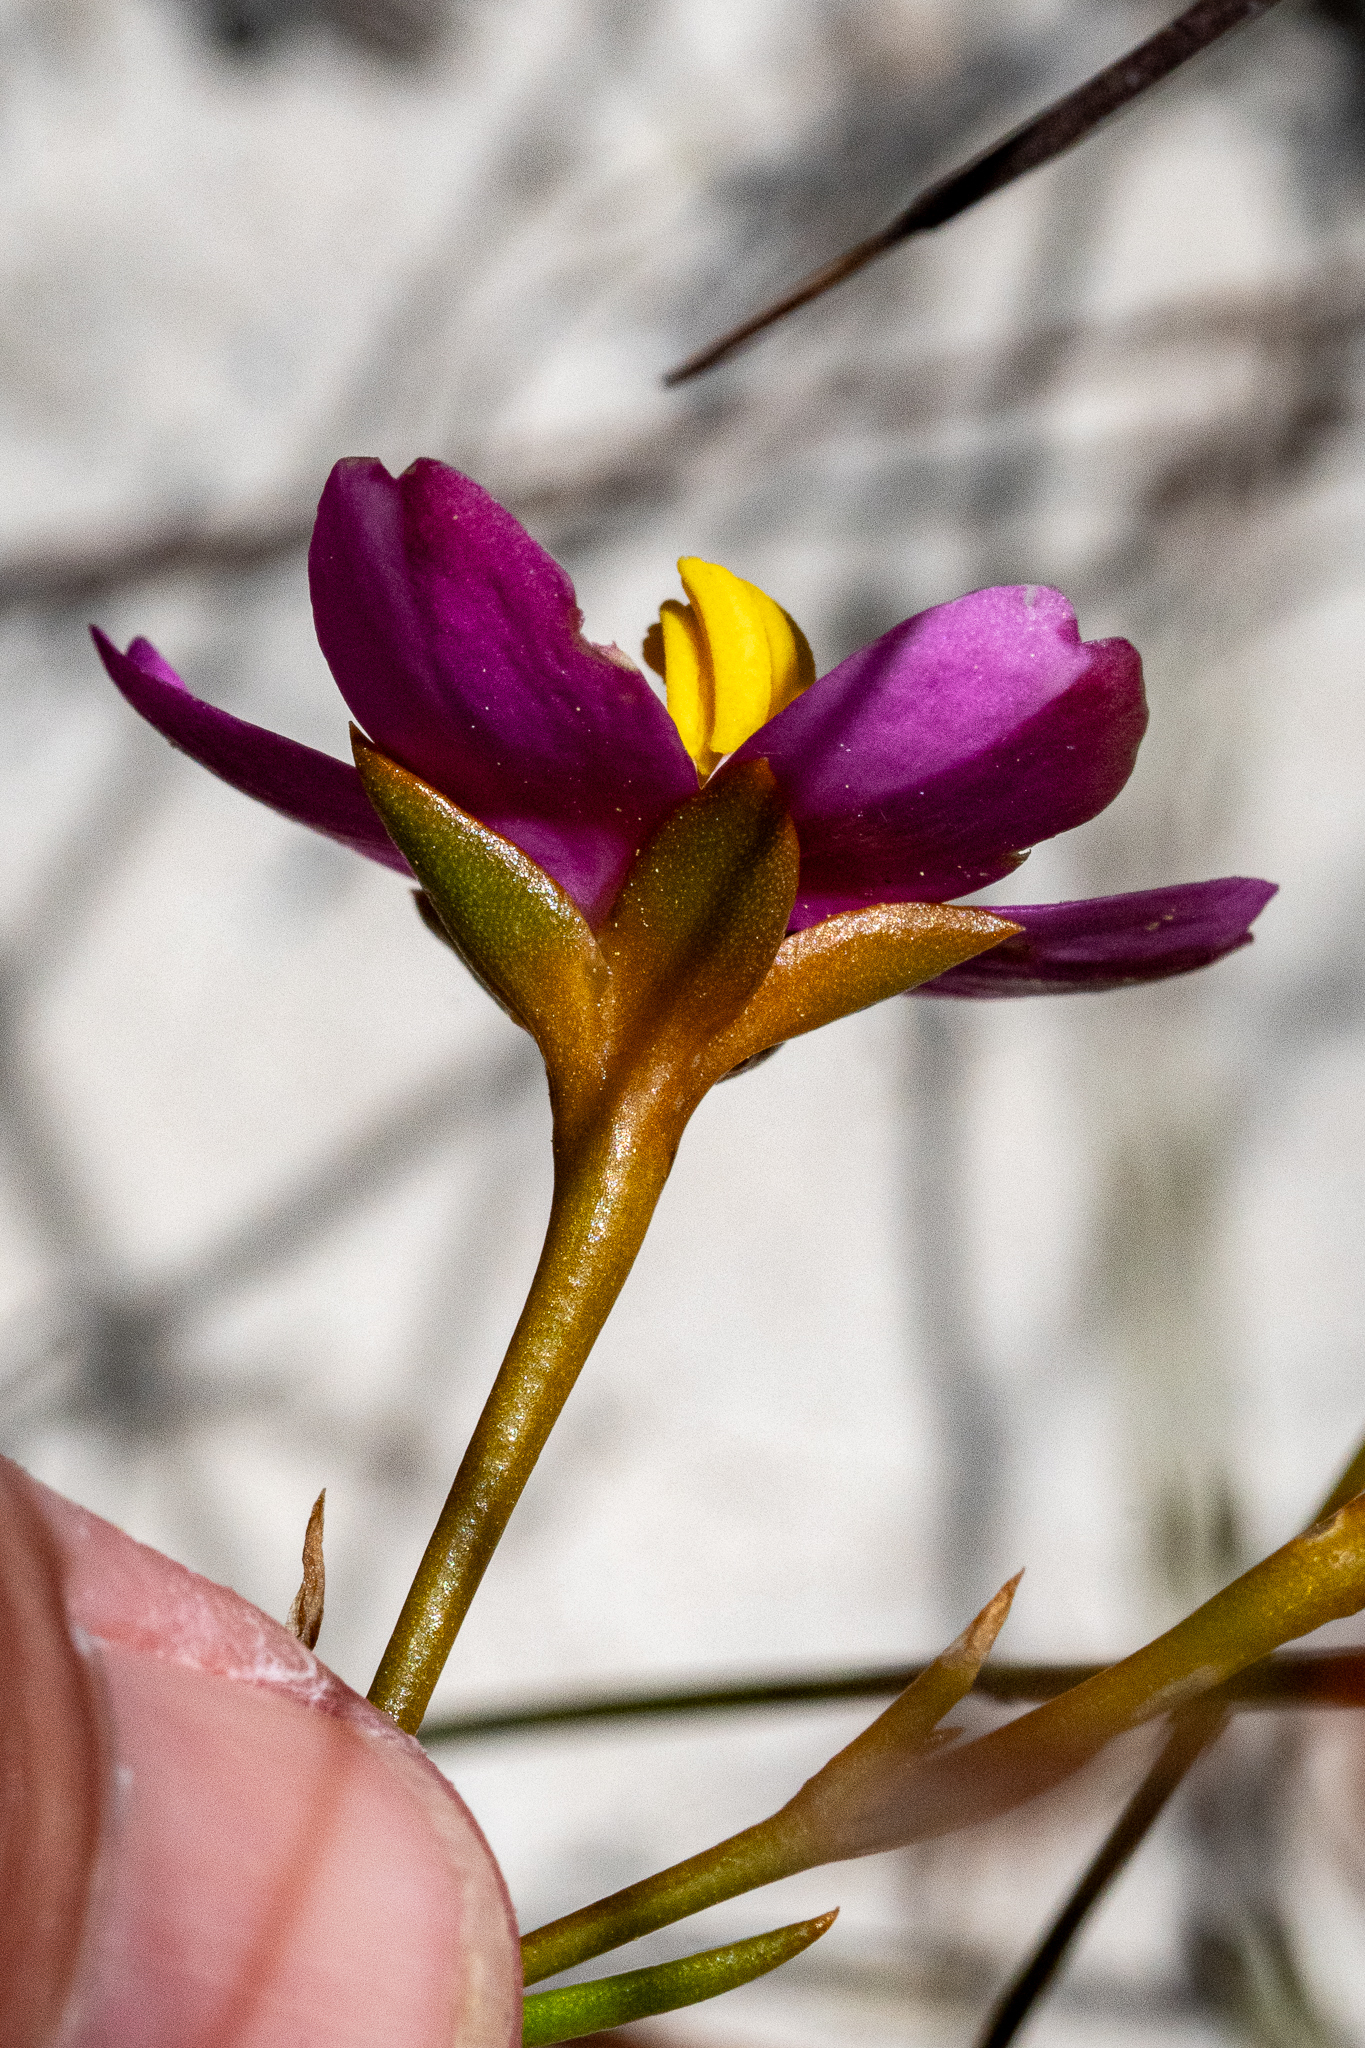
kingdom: Plantae
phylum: Tracheophyta
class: Magnoliopsida
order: Gentianales
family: Gentianaceae
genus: Chironia
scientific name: Chironia linoides
